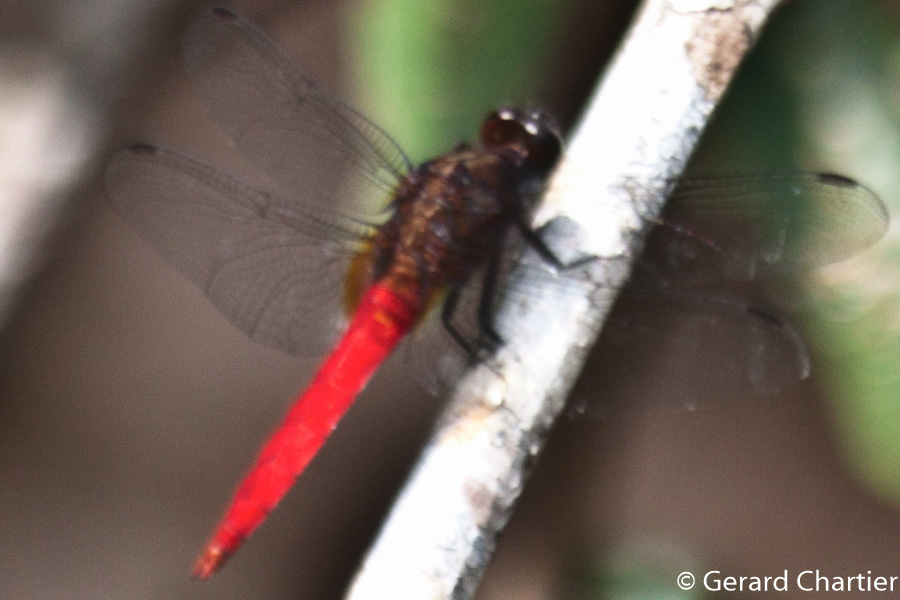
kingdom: Animalia
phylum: Arthropoda
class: Insecta
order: Odonata
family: Libellulidae
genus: Orthetrum
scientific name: Orthetrum chrysis
